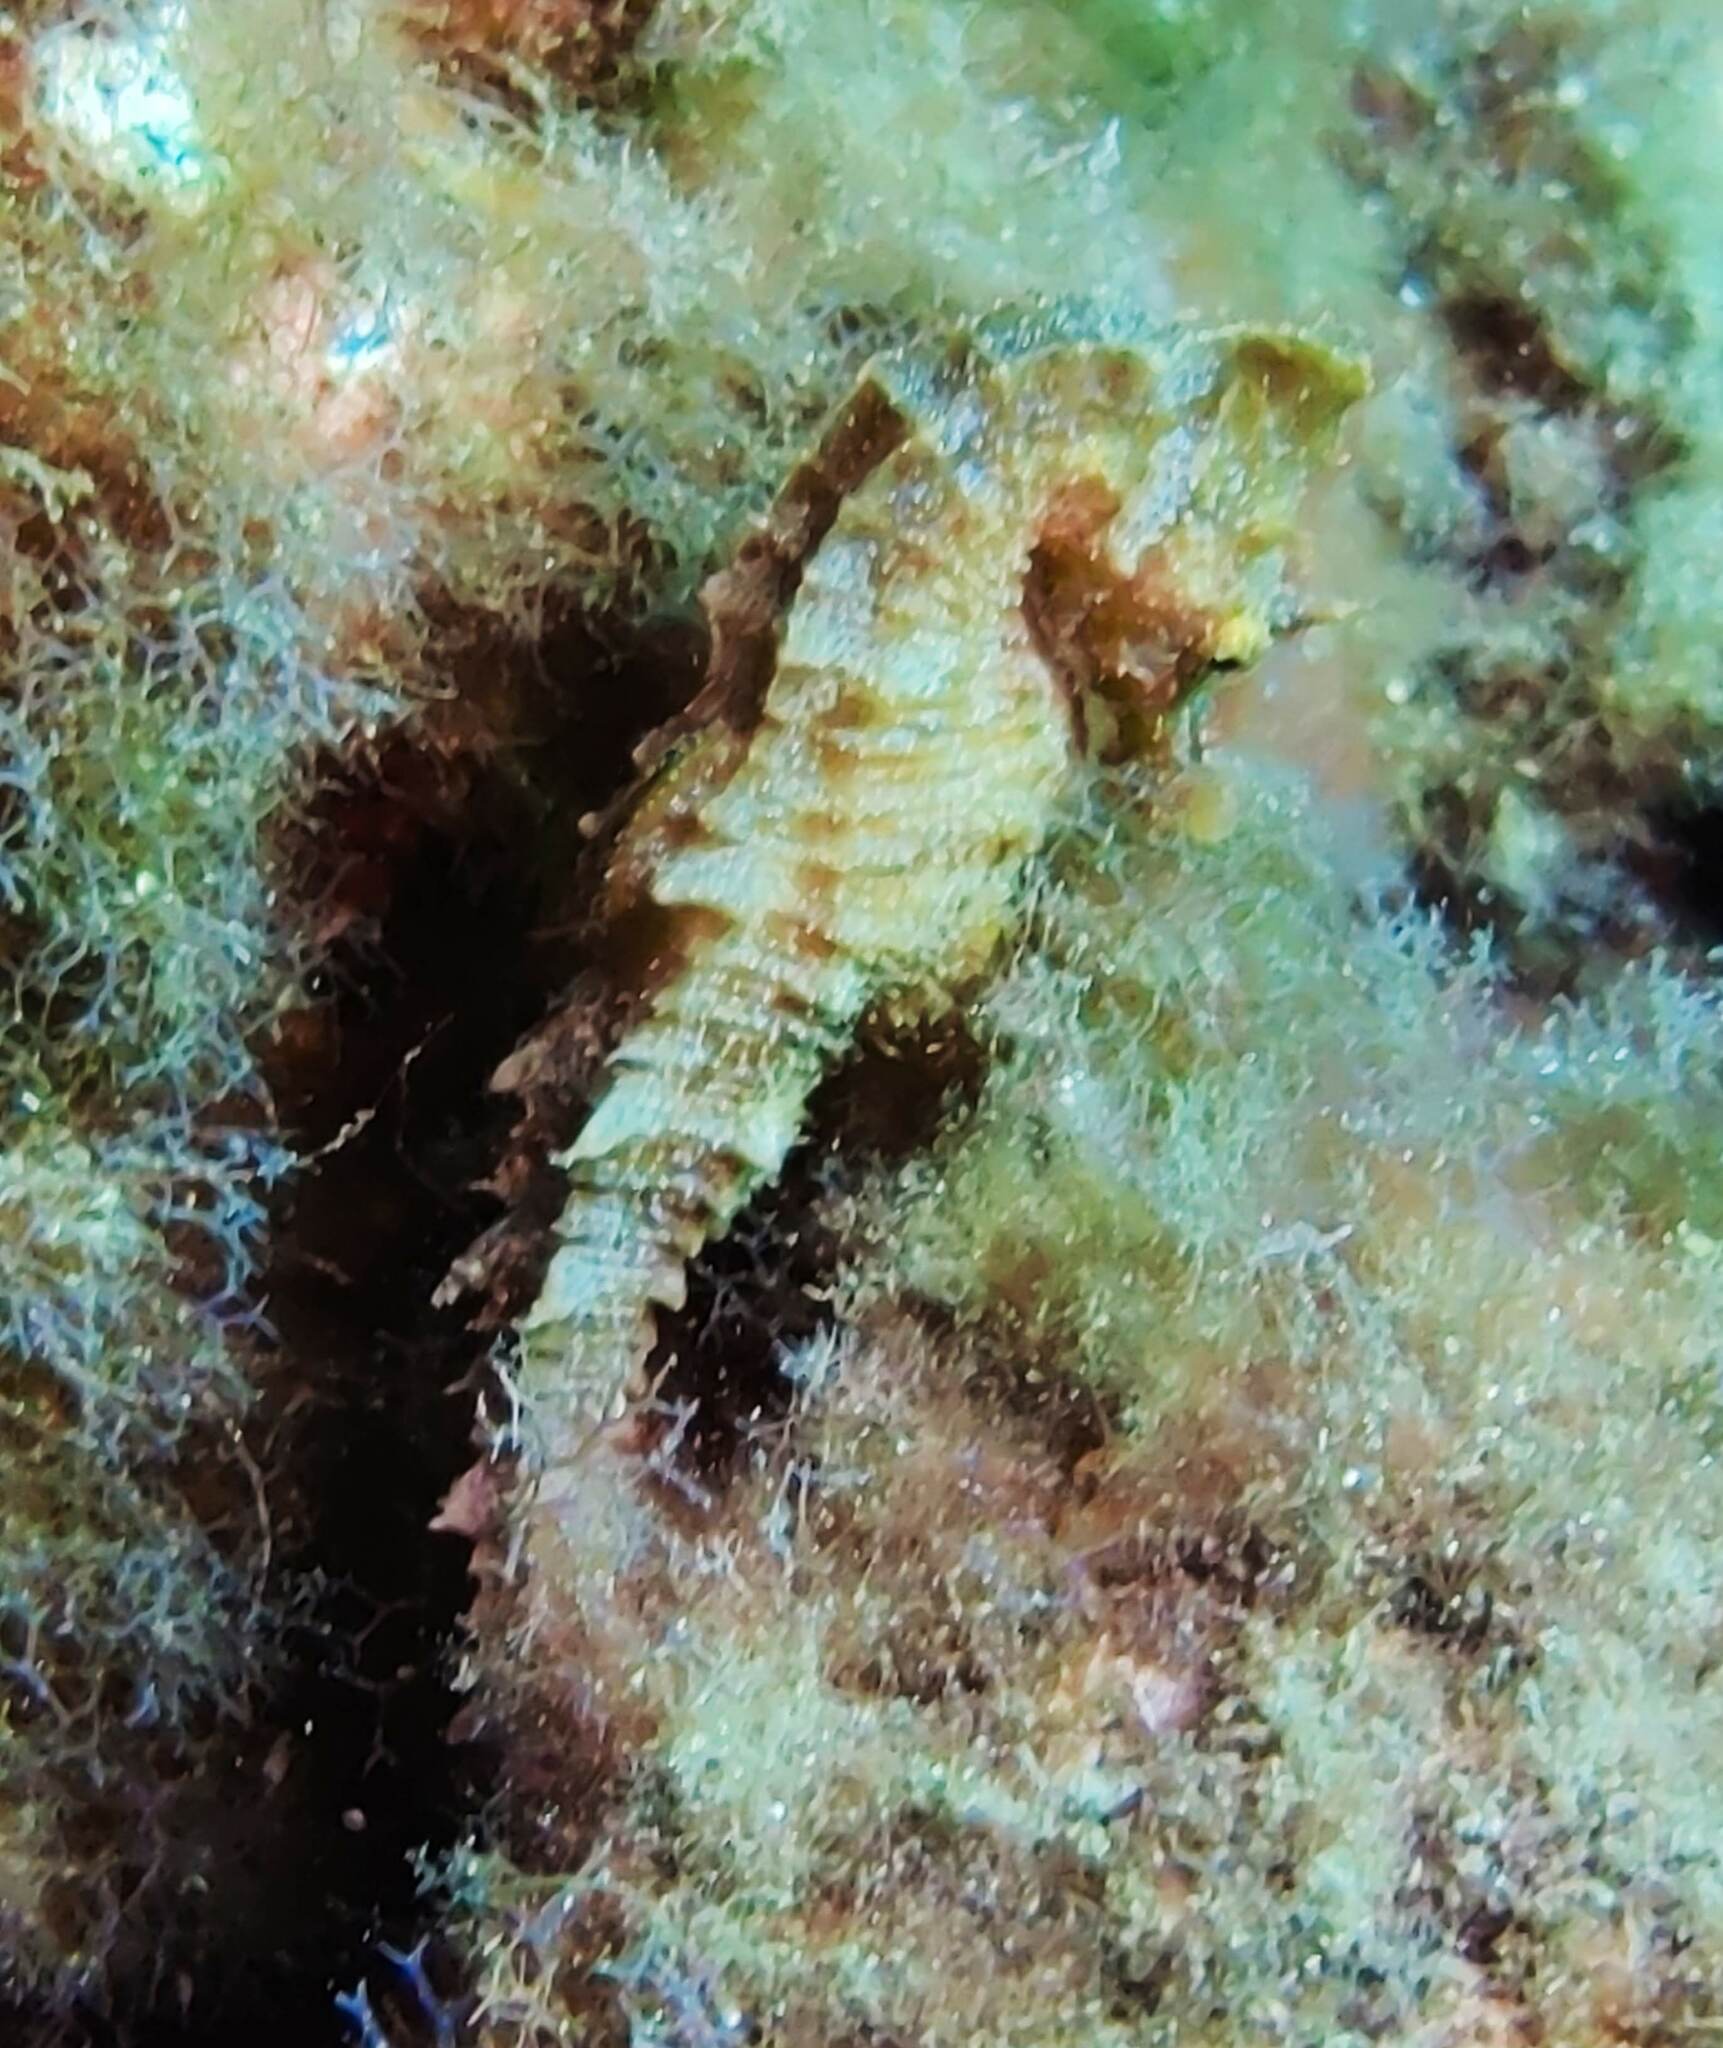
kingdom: Animalia
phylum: Chordata
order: Syngnathiformes
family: Syngnathidae
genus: Hippocampus
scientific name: Hippocampus hippocampus
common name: Short-snouted seahorse
